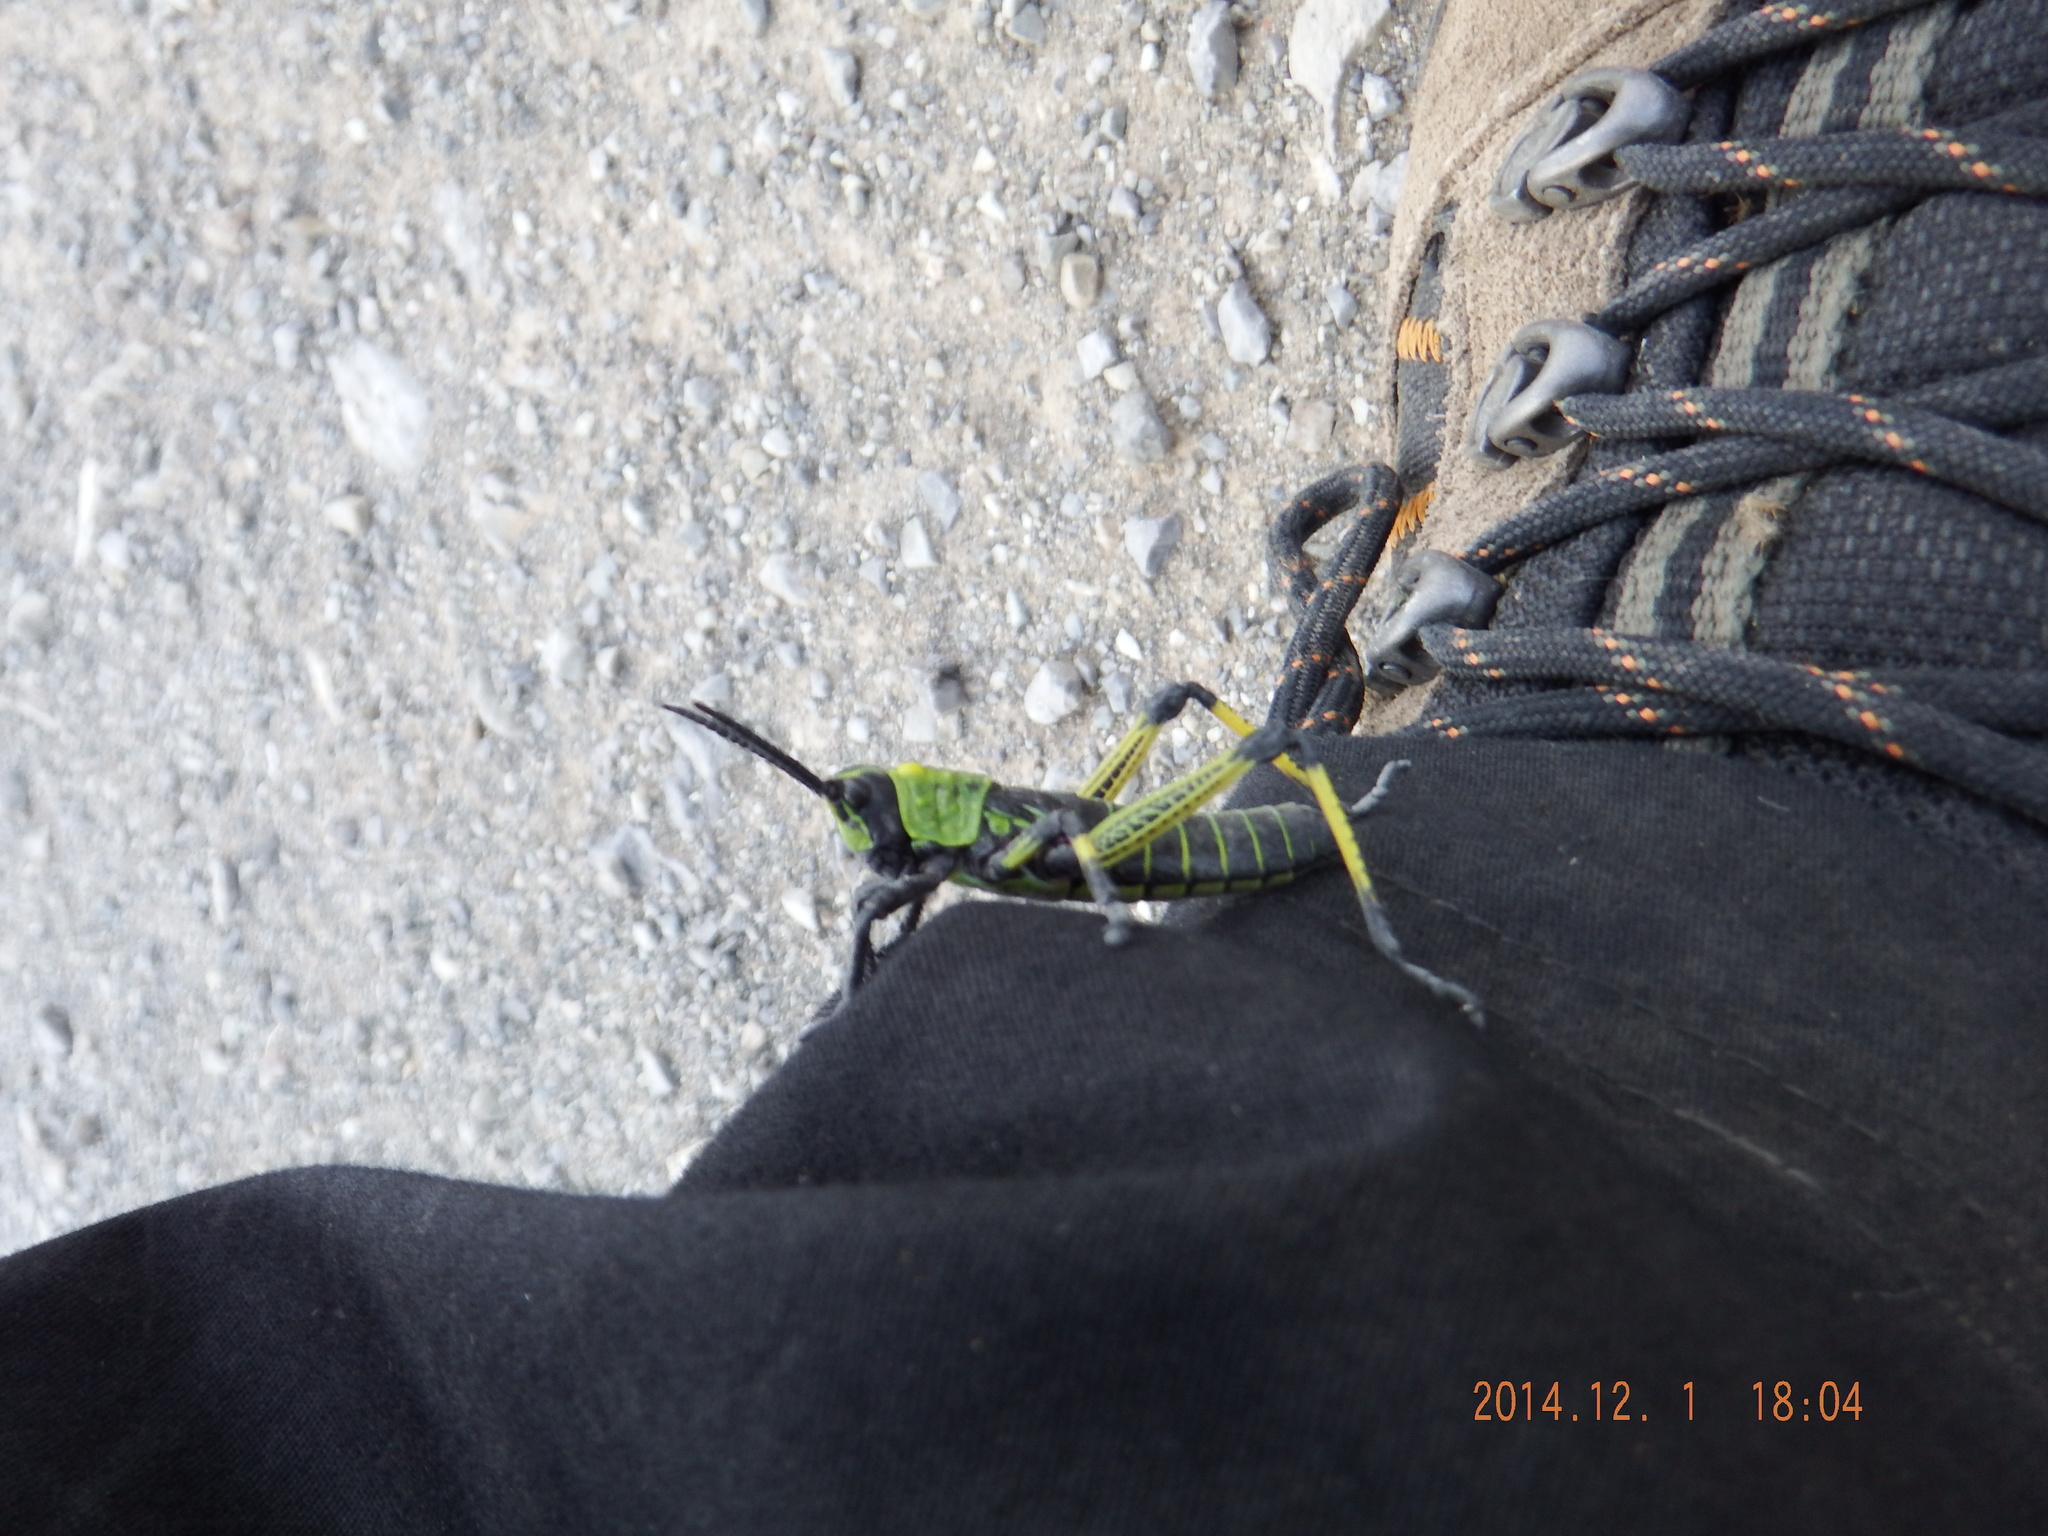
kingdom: Animalia
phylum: Arthropoda
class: Insecta
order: Orthoptera
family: Pyrgomorphidae
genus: Phymateus
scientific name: Phymateus leprosus
